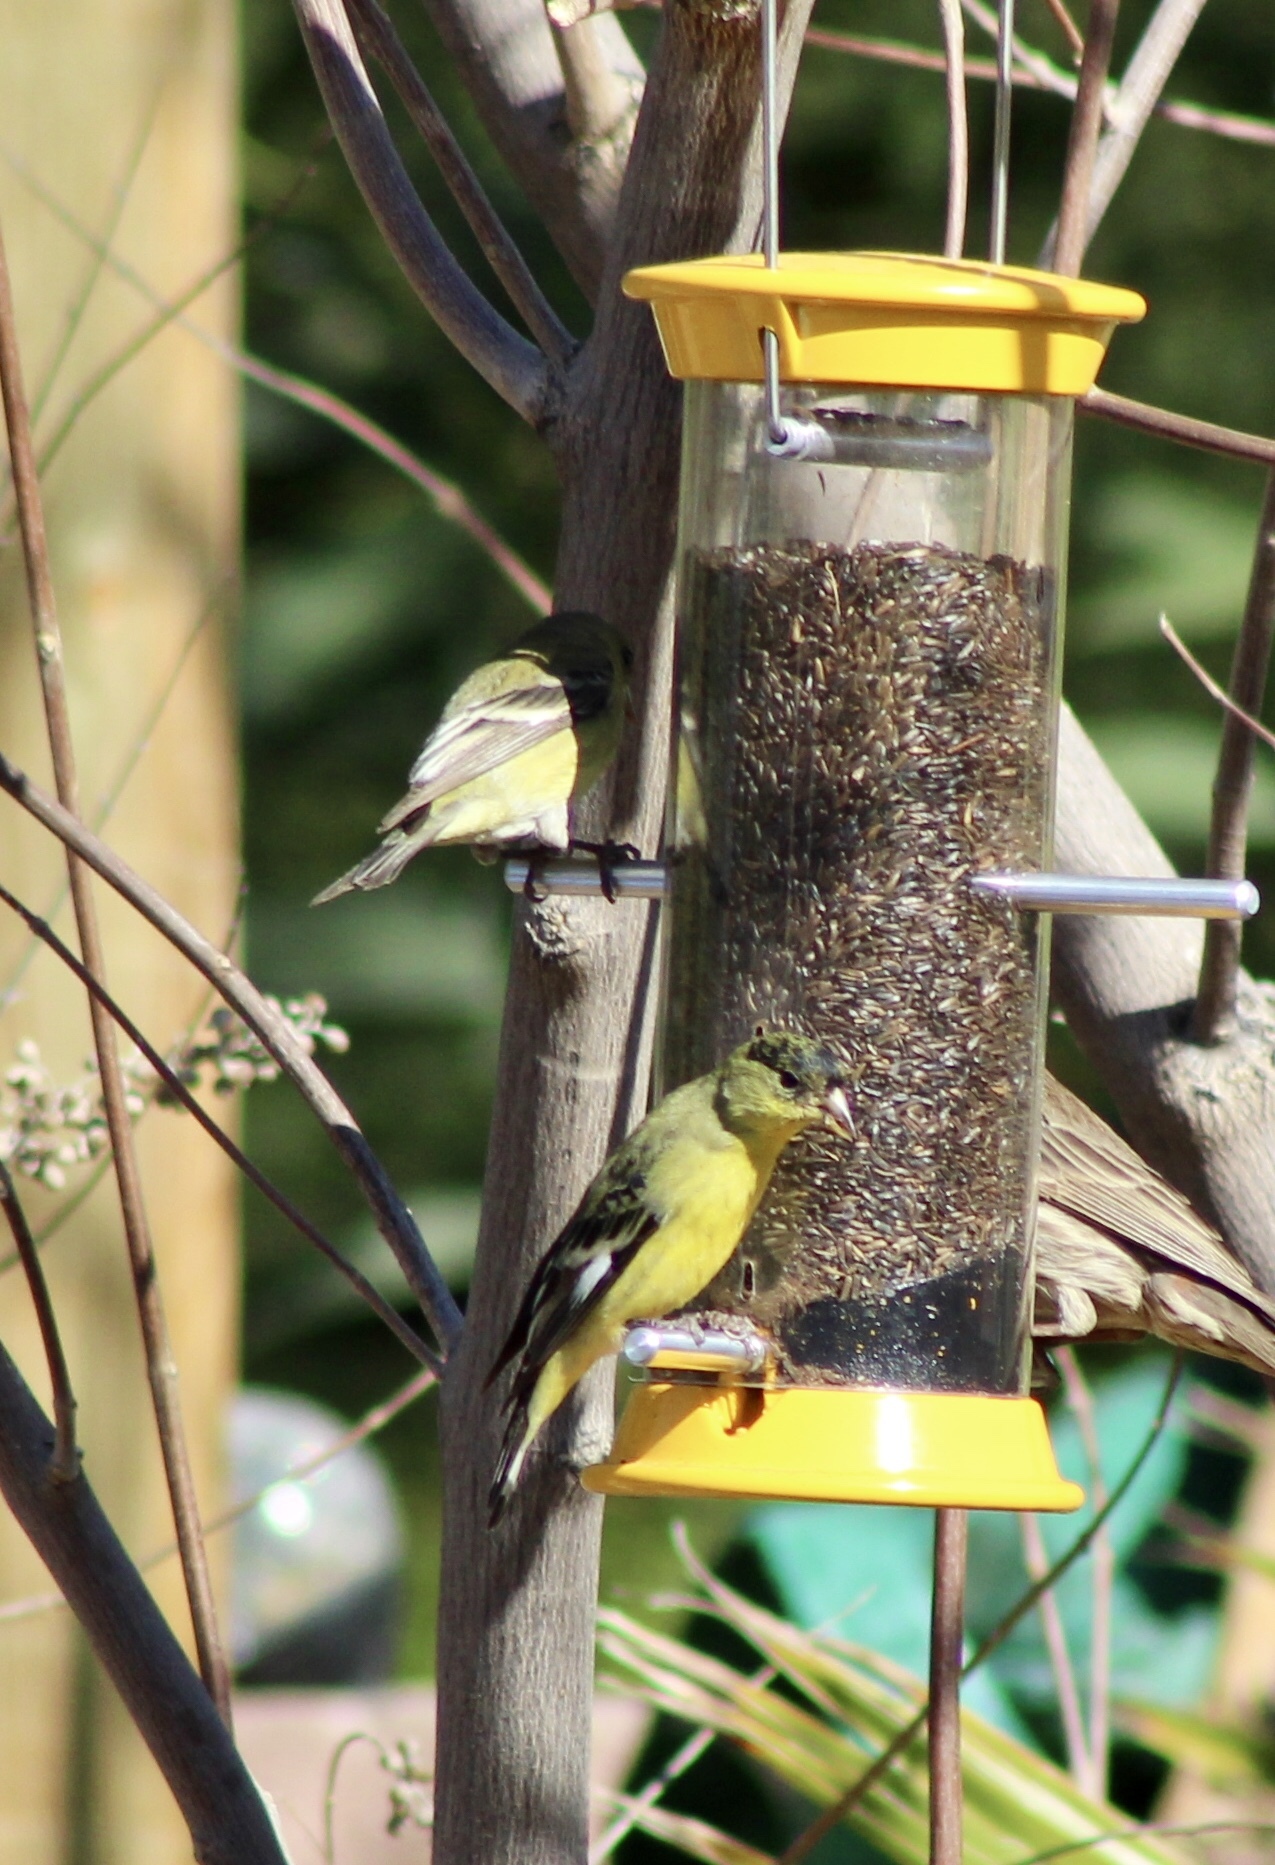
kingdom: Animalia
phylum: Chordata
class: Aves
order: Passeriformes
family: Fringillidae
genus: Spinus
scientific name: Spinus psaltria
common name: Lesser goldfinch
